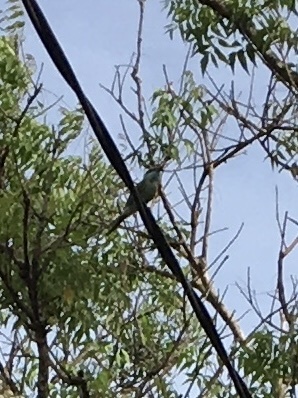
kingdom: Animalia
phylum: Chordata
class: Aves
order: Coraciiformes
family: Meropidae
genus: Merops
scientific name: Merops orientalis
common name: Green bee-eater
